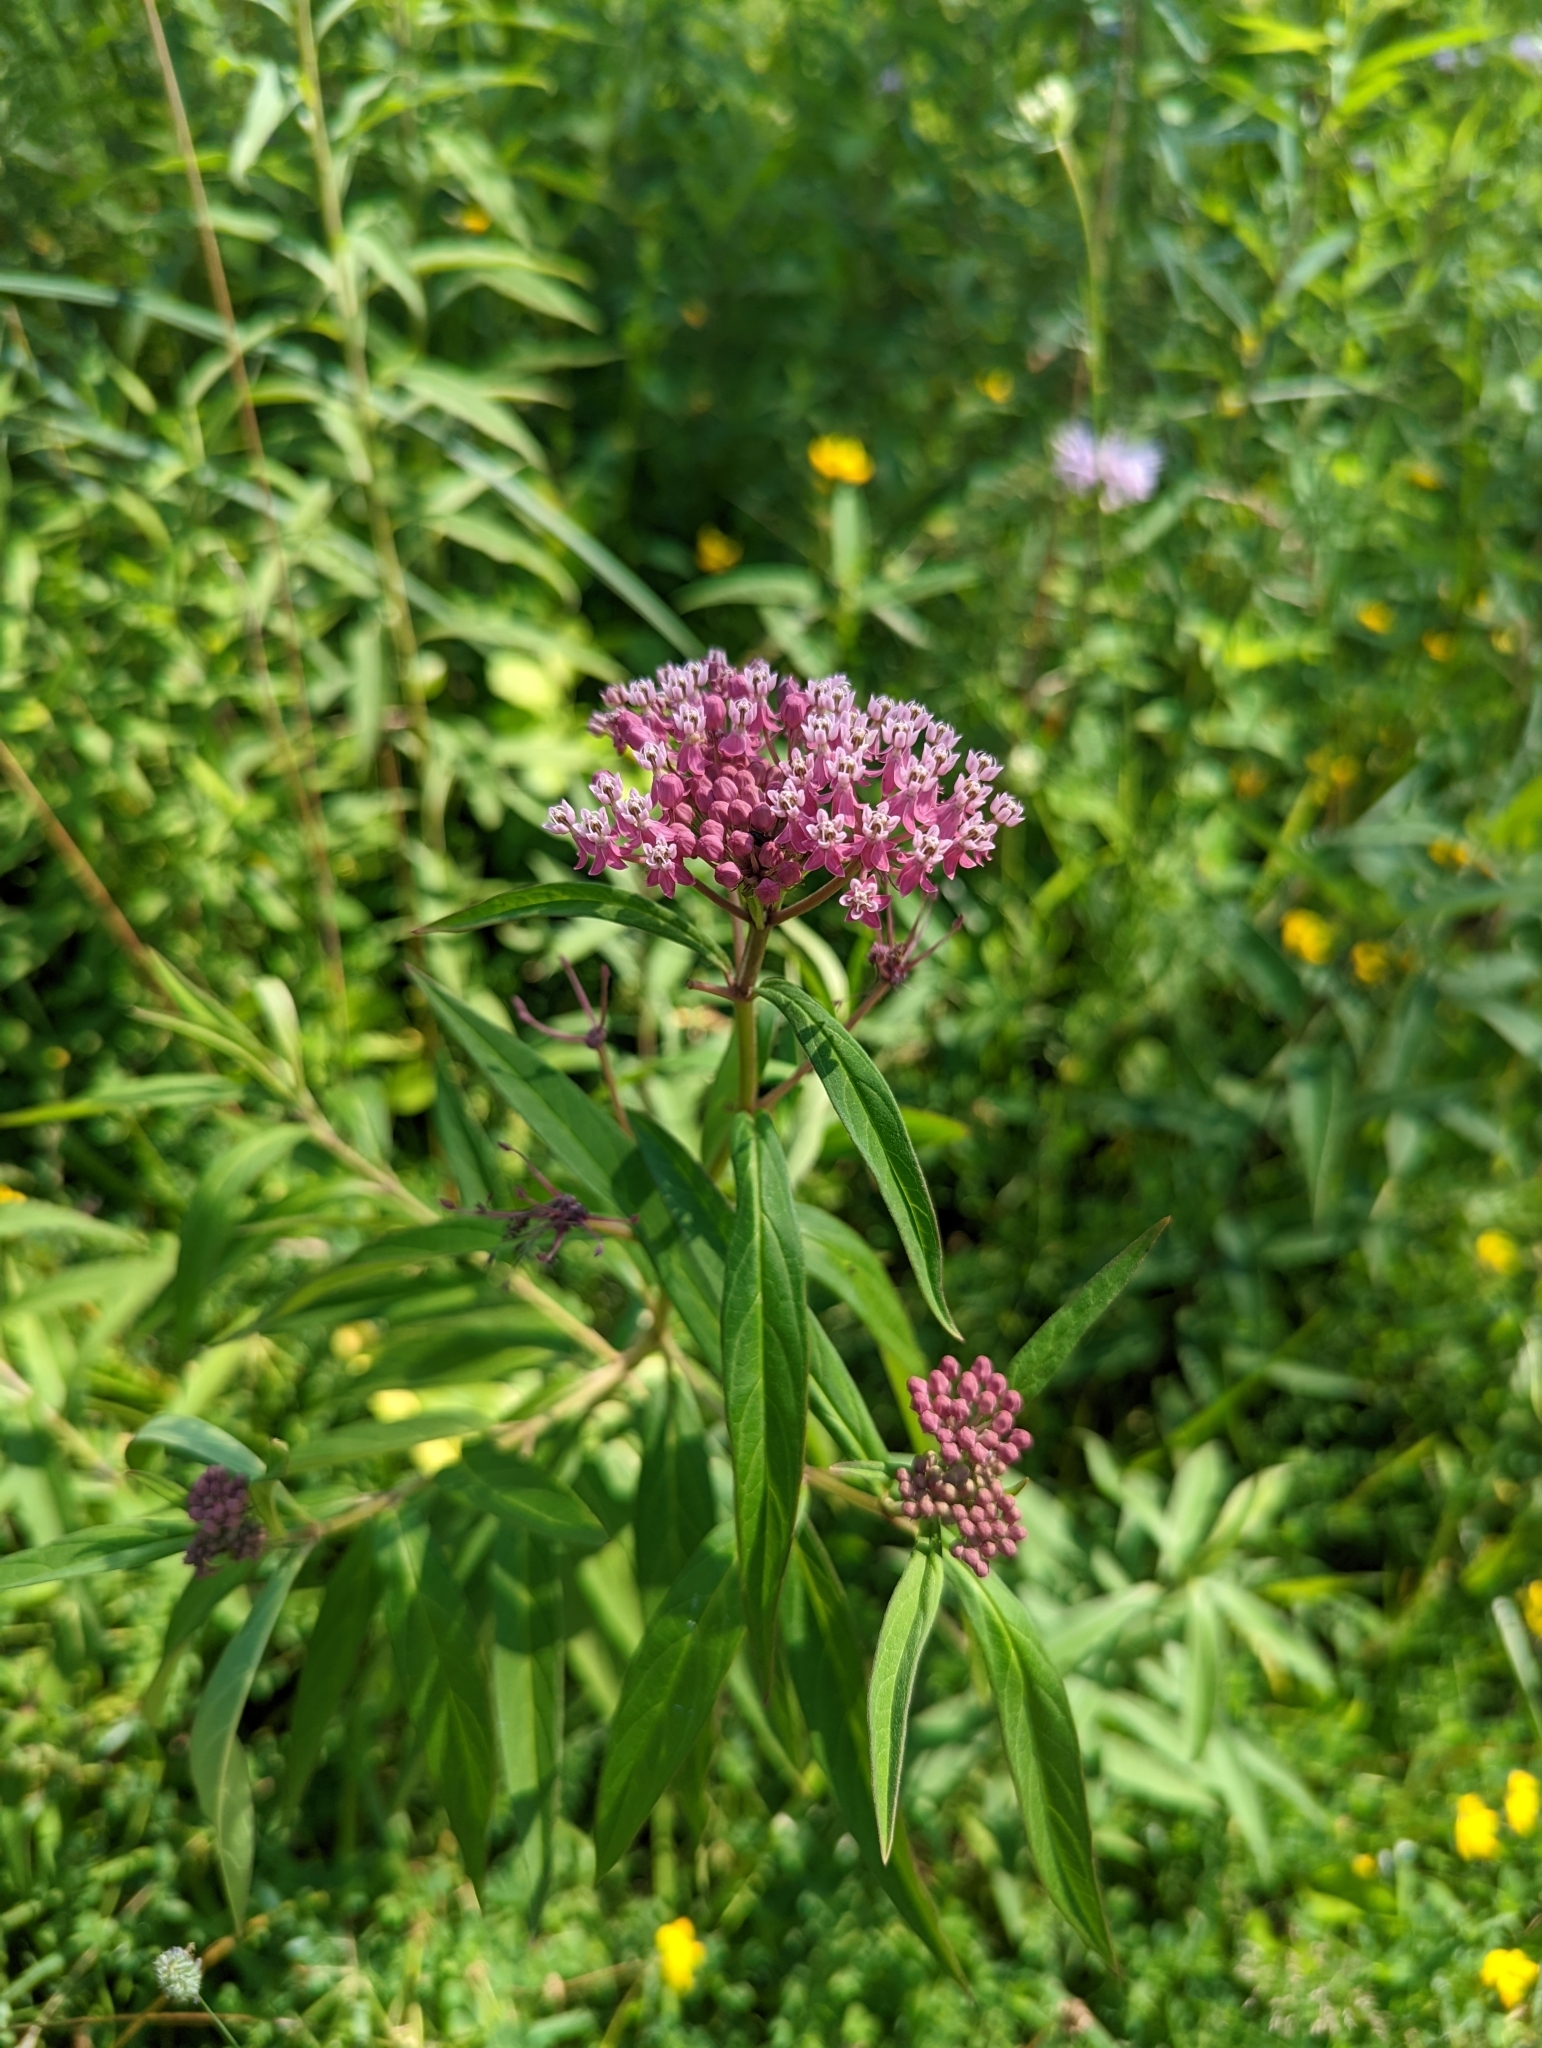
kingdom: Plantae
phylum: Tracheophyta
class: Magnoliopsida
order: Gentianales
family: Apocynaceae
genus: Asclepias
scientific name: Asclepias incarnata
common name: Swamp milkweed
